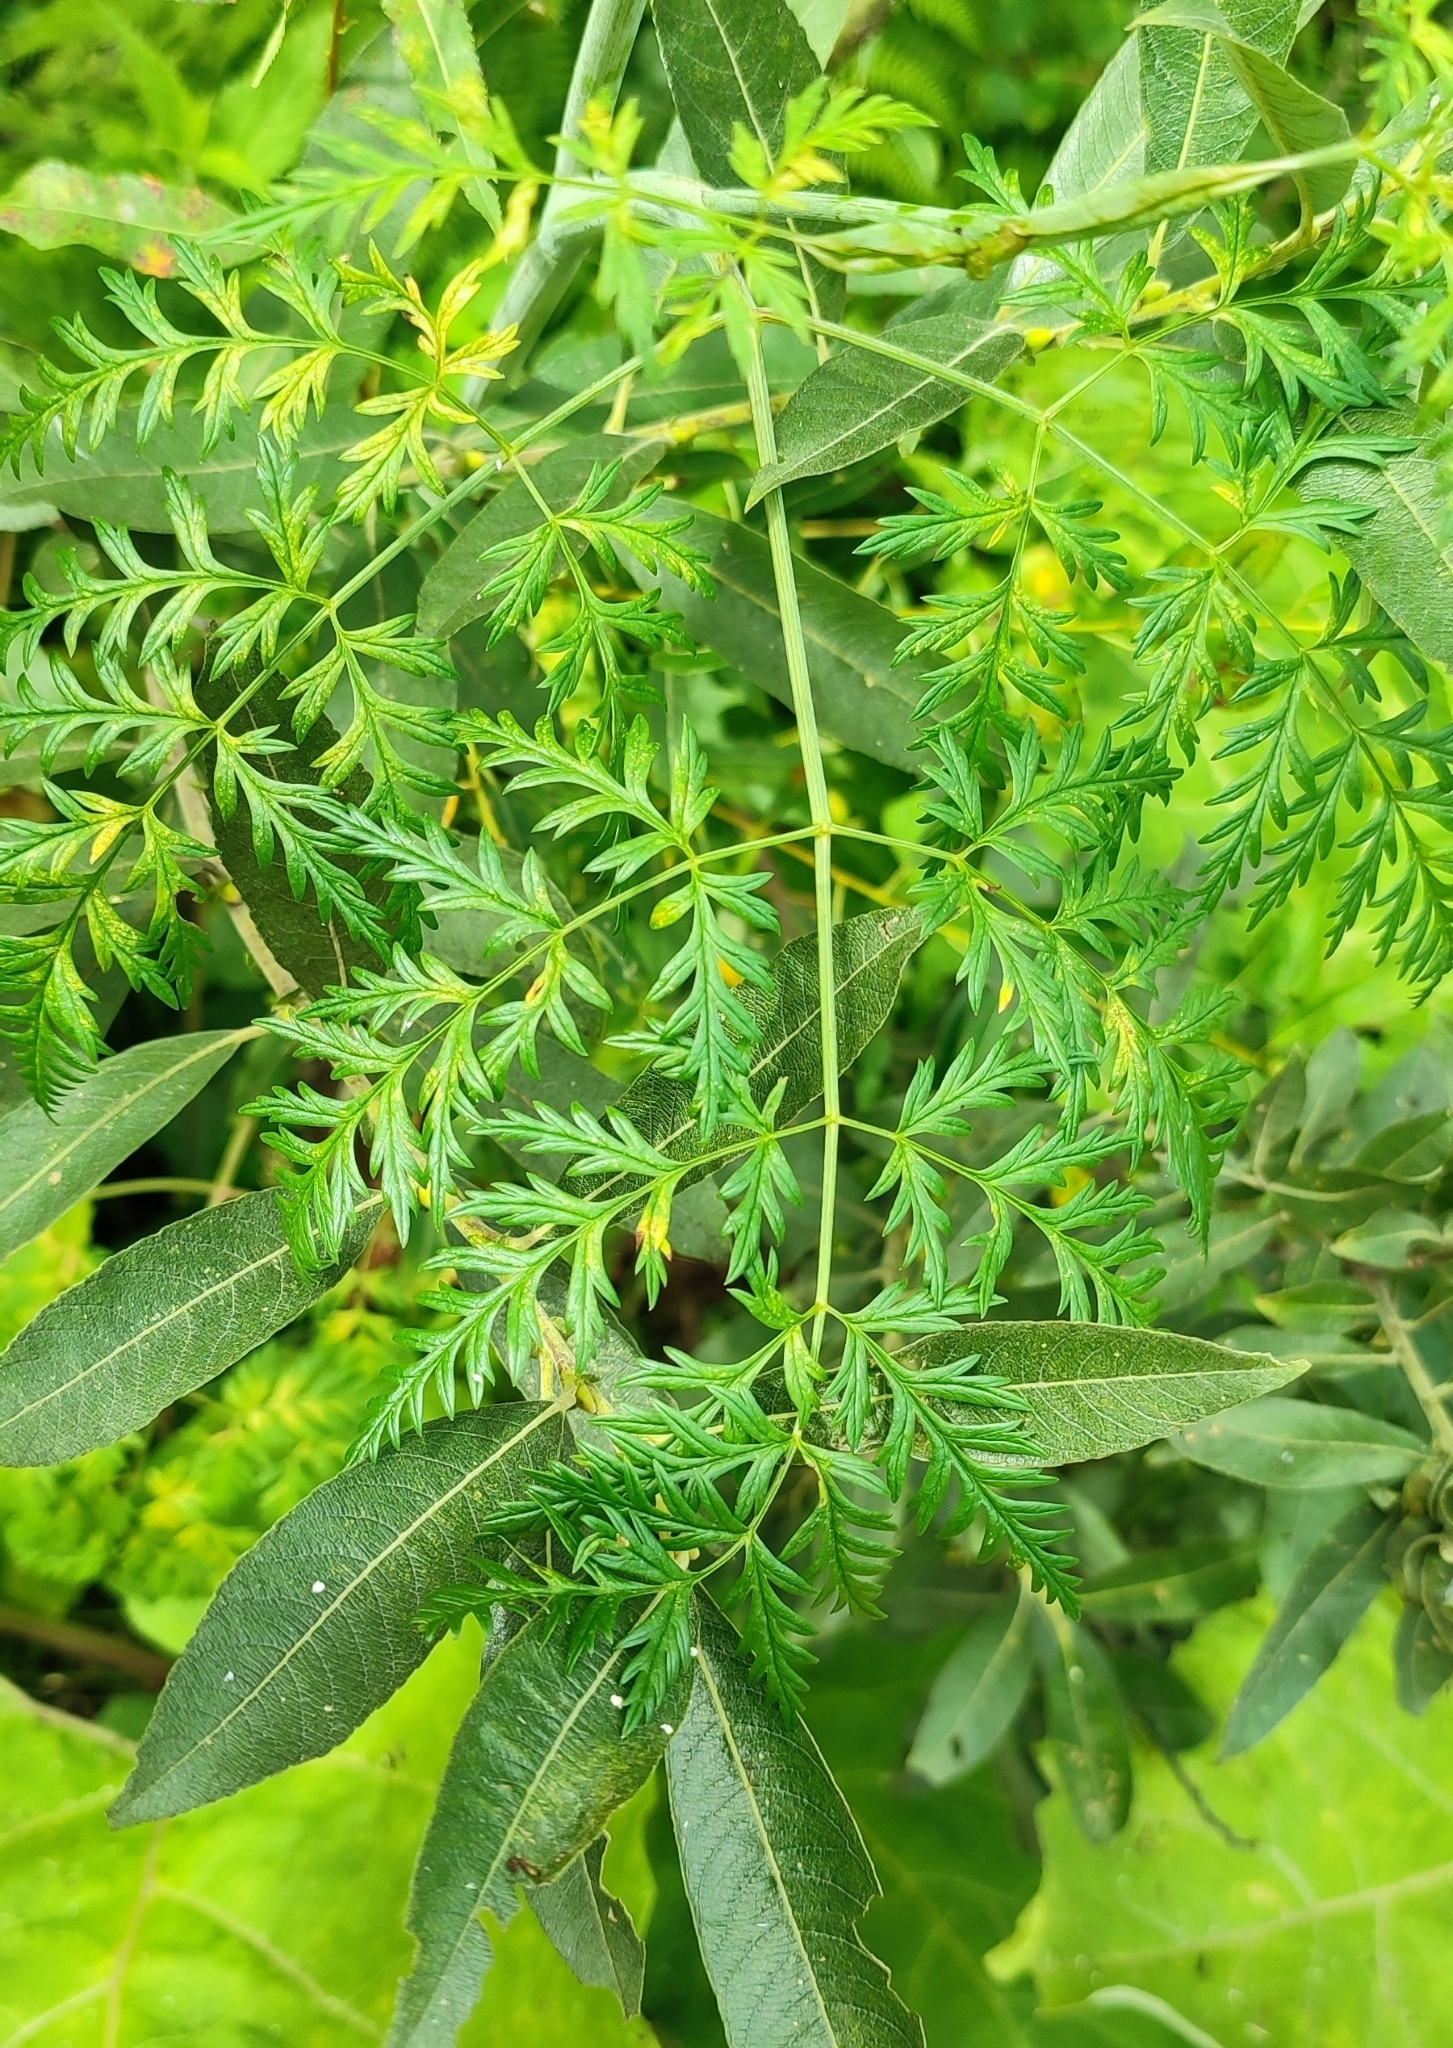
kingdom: Plantae
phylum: Tracheophyta
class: Magnoliopsida
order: Apiales
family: Apiaceae
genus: Conium
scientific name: Conium maculatum
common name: Hemlock
